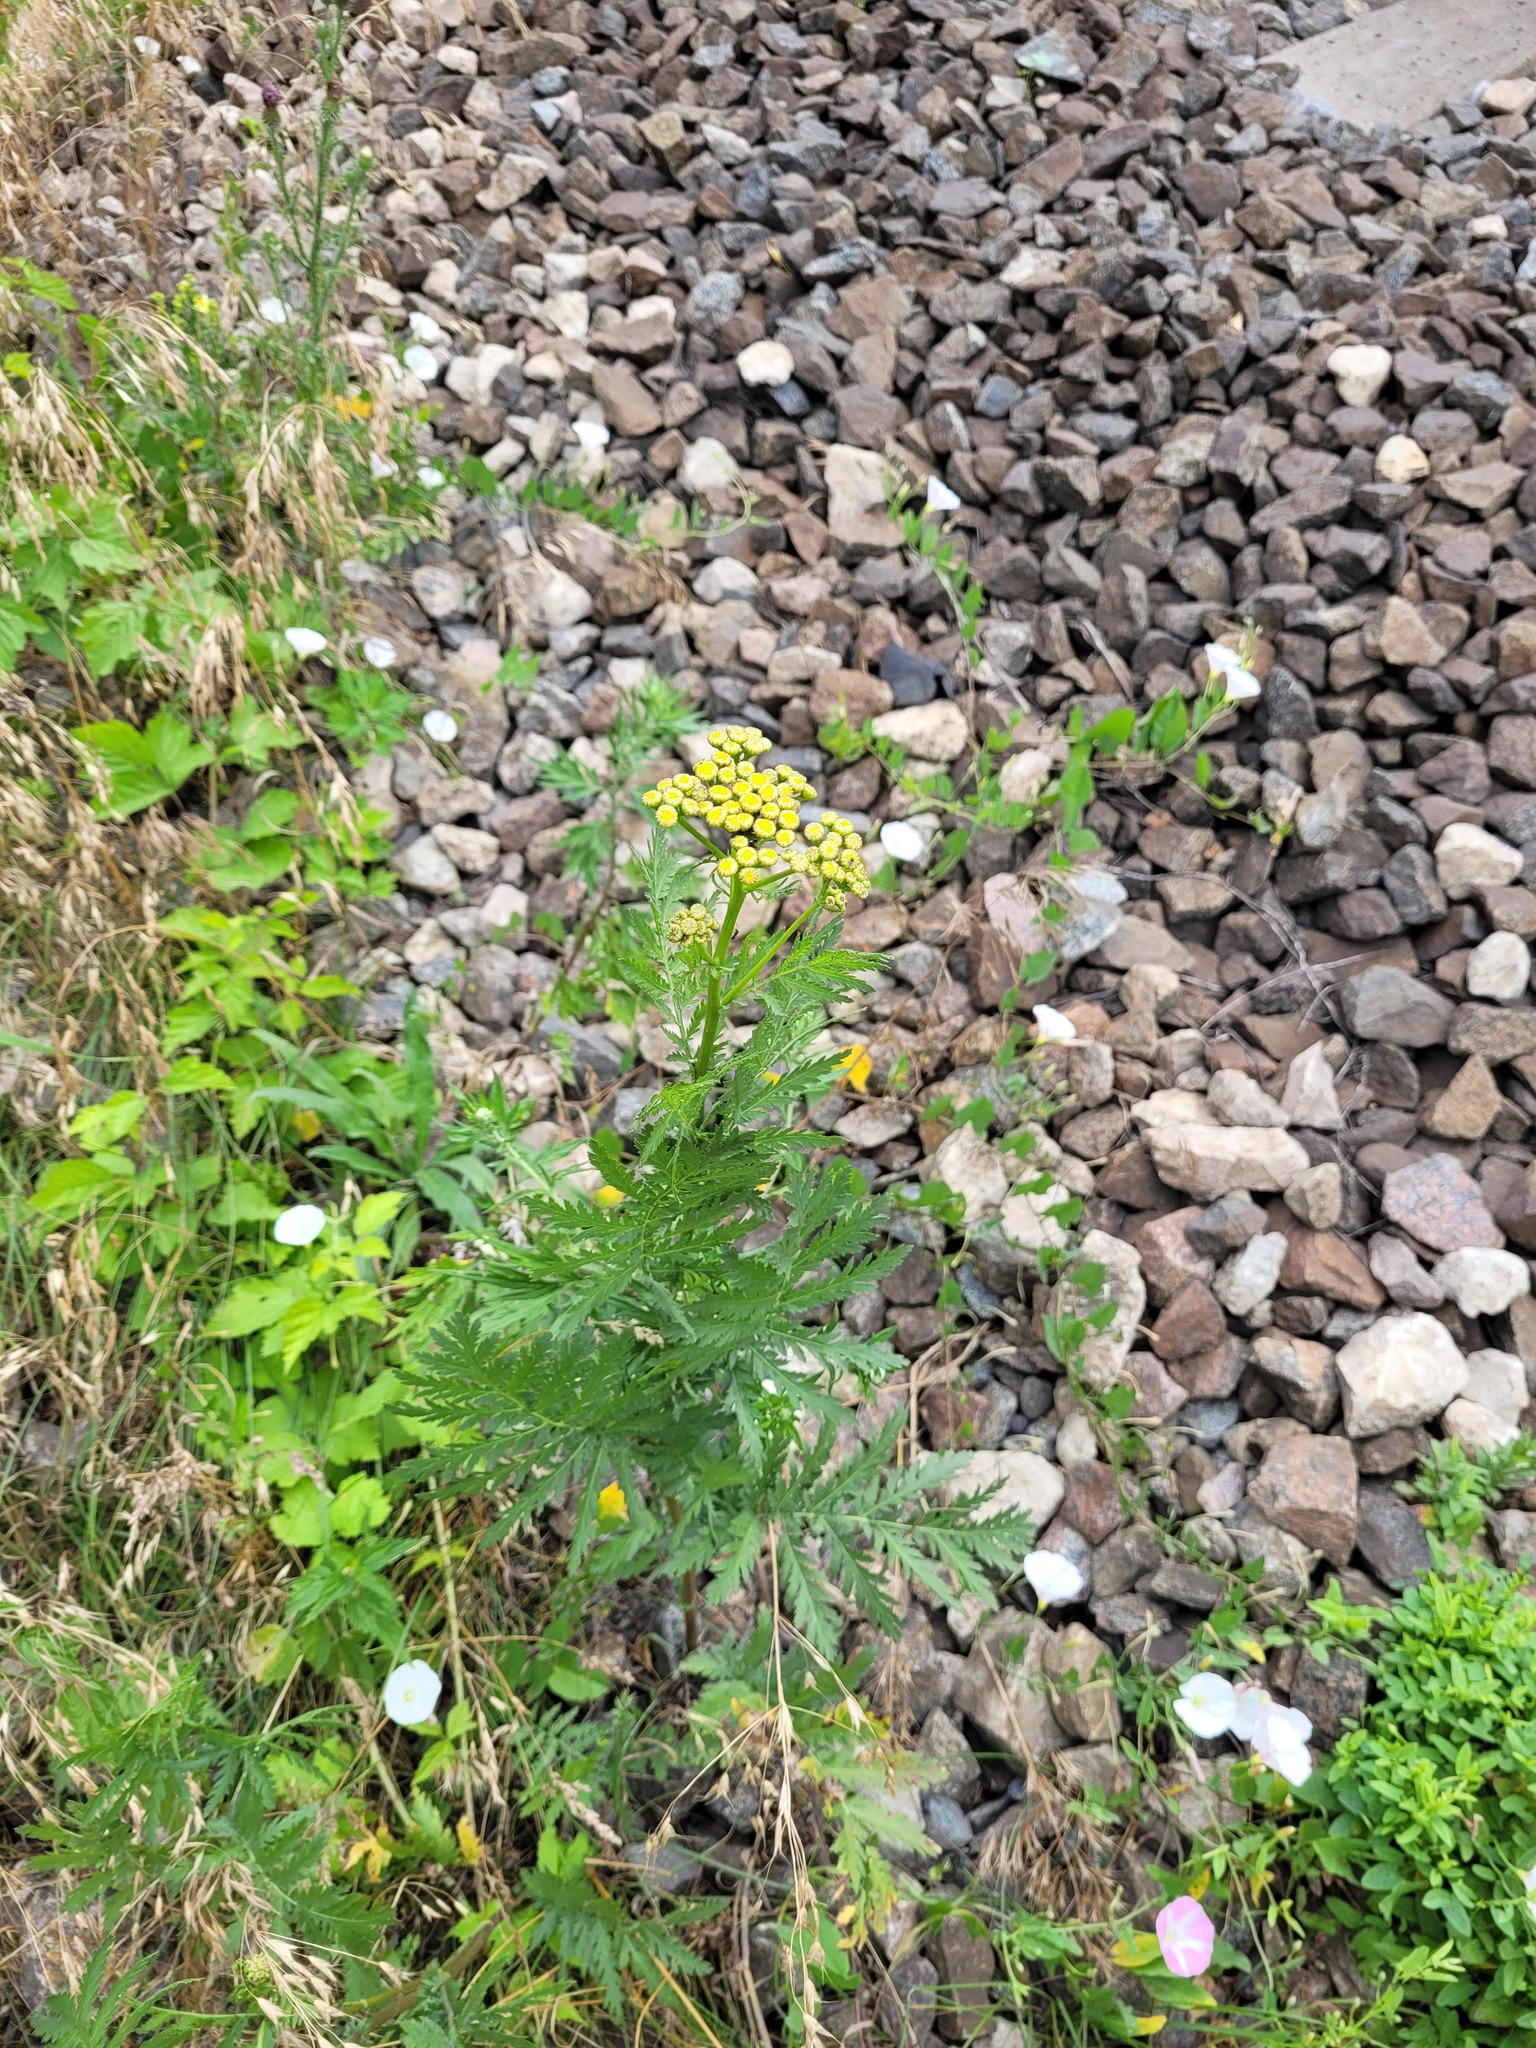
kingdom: Plantae
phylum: Tracheophyta
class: Magnoliopsida
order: Asterales
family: Asteraceae
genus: Tanacetum
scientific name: Tanacetum vulgare
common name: Common tansy
